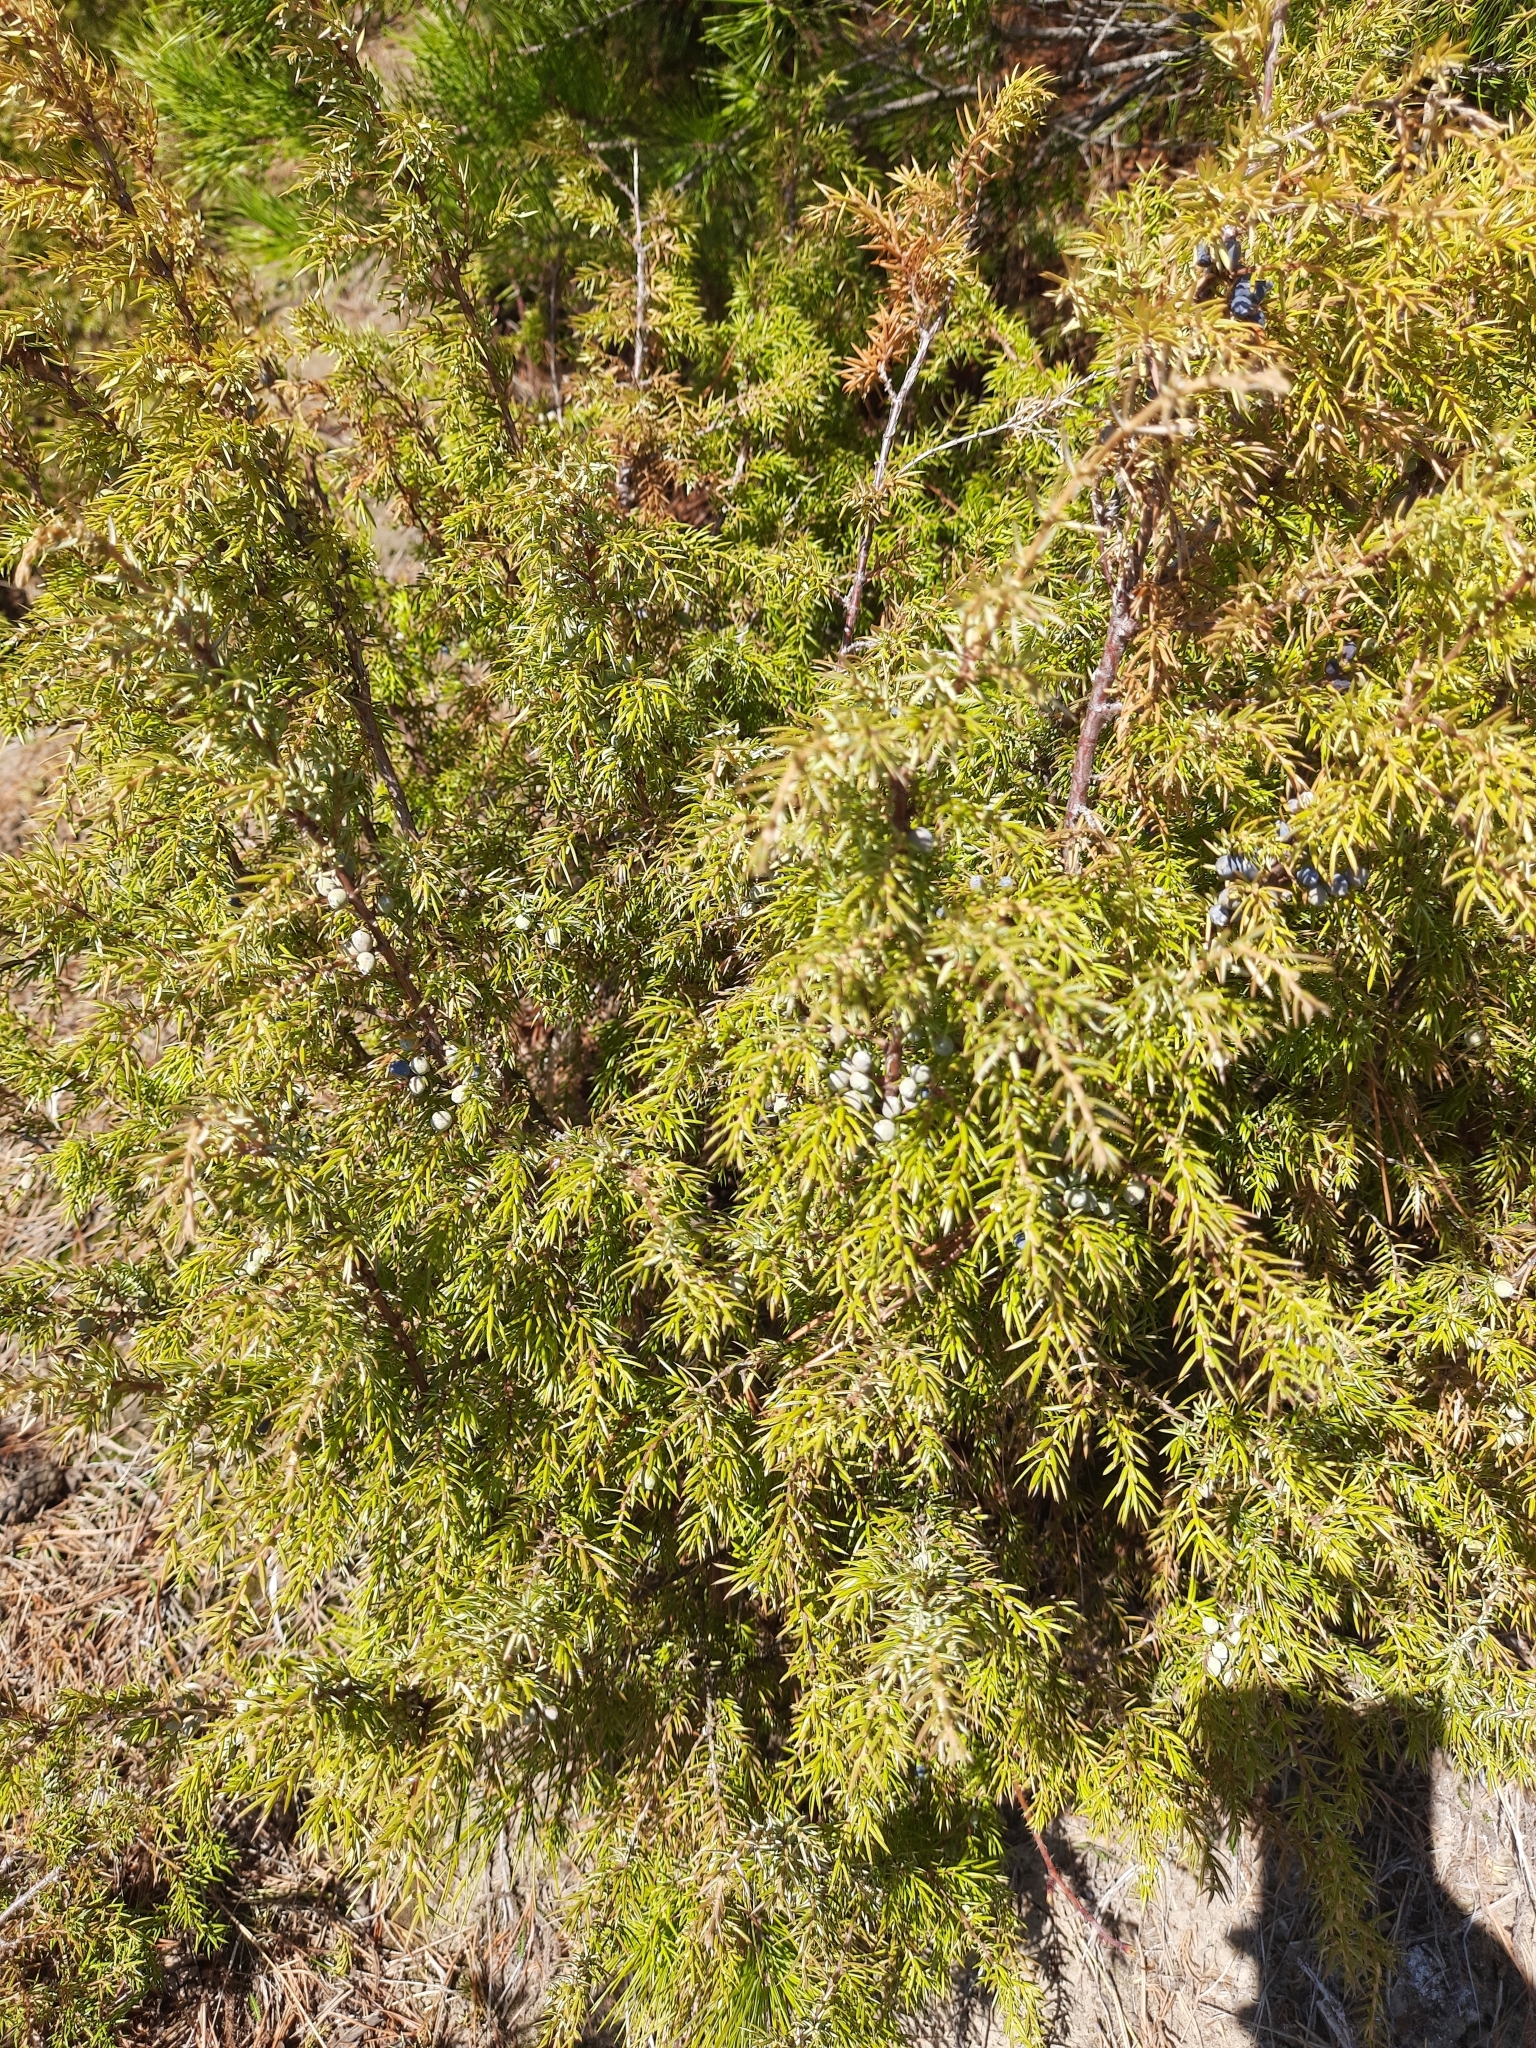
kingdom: Plantae
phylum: Tracheophyta
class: Pinopsida
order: Pinales
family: Cupressaceae
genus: Juniperus
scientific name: Juniperus communis
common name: Common juniper
